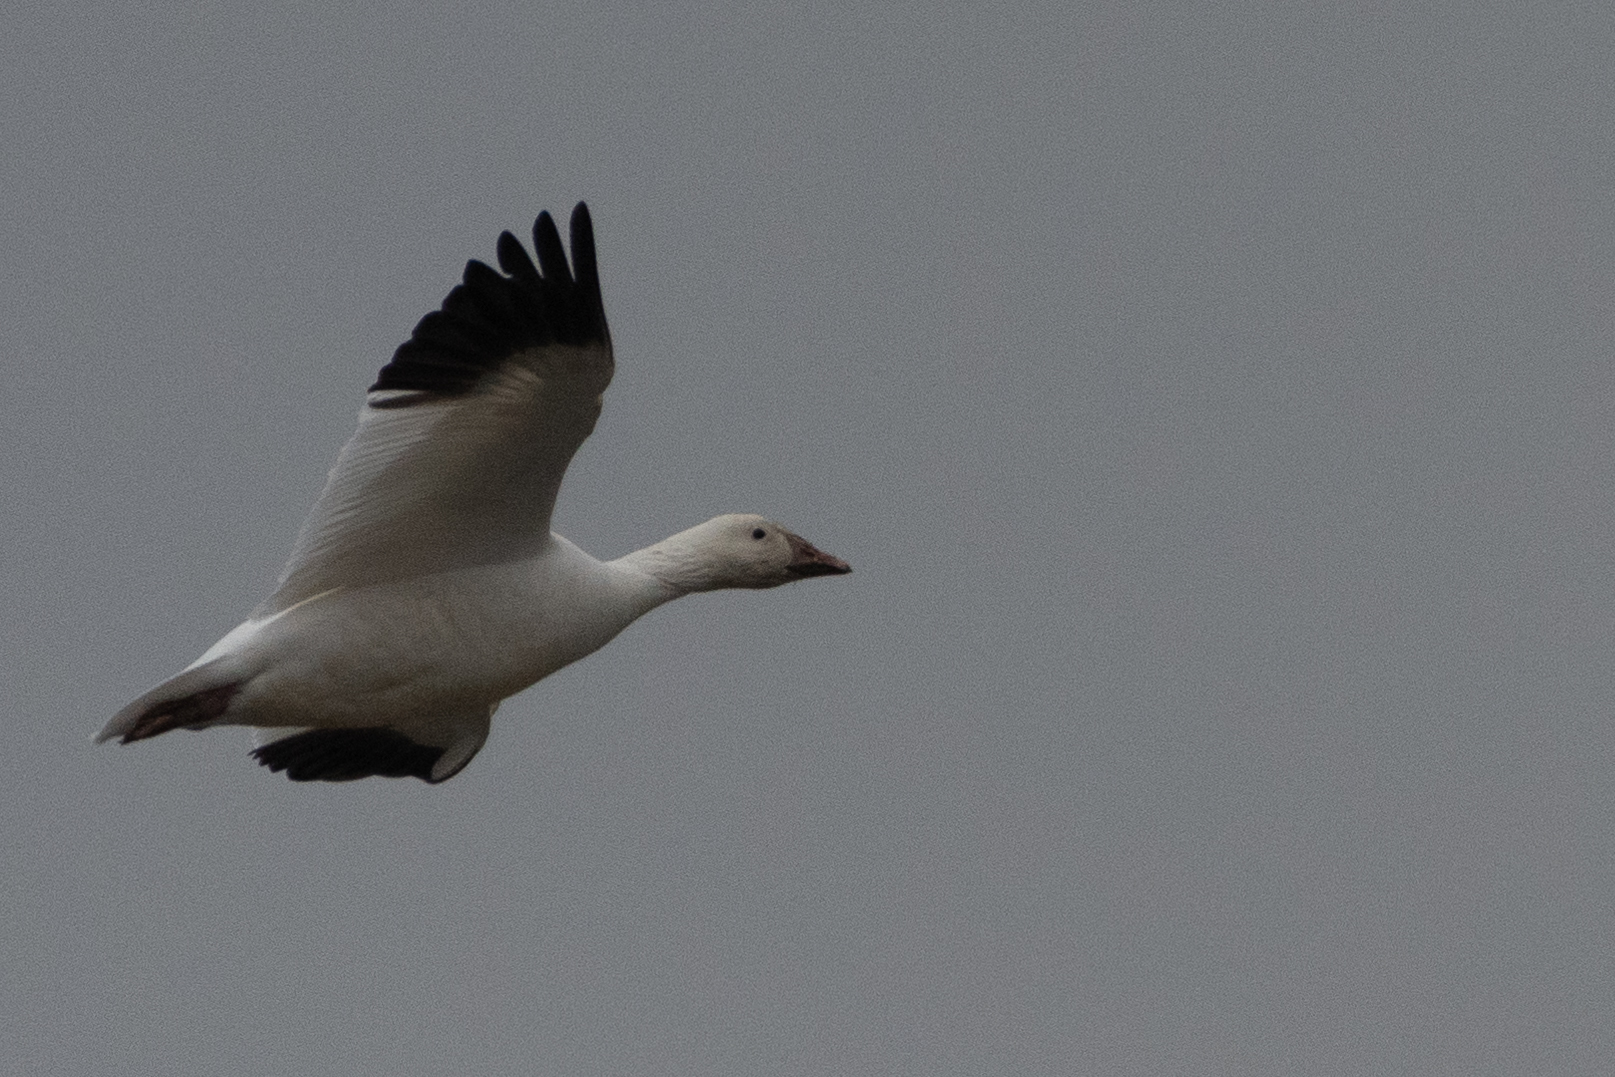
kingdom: Animalia
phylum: Chordata
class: Aves
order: Anseriformes
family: Anatidae
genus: Anser
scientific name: Anser caerulescens
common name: Snow goose
